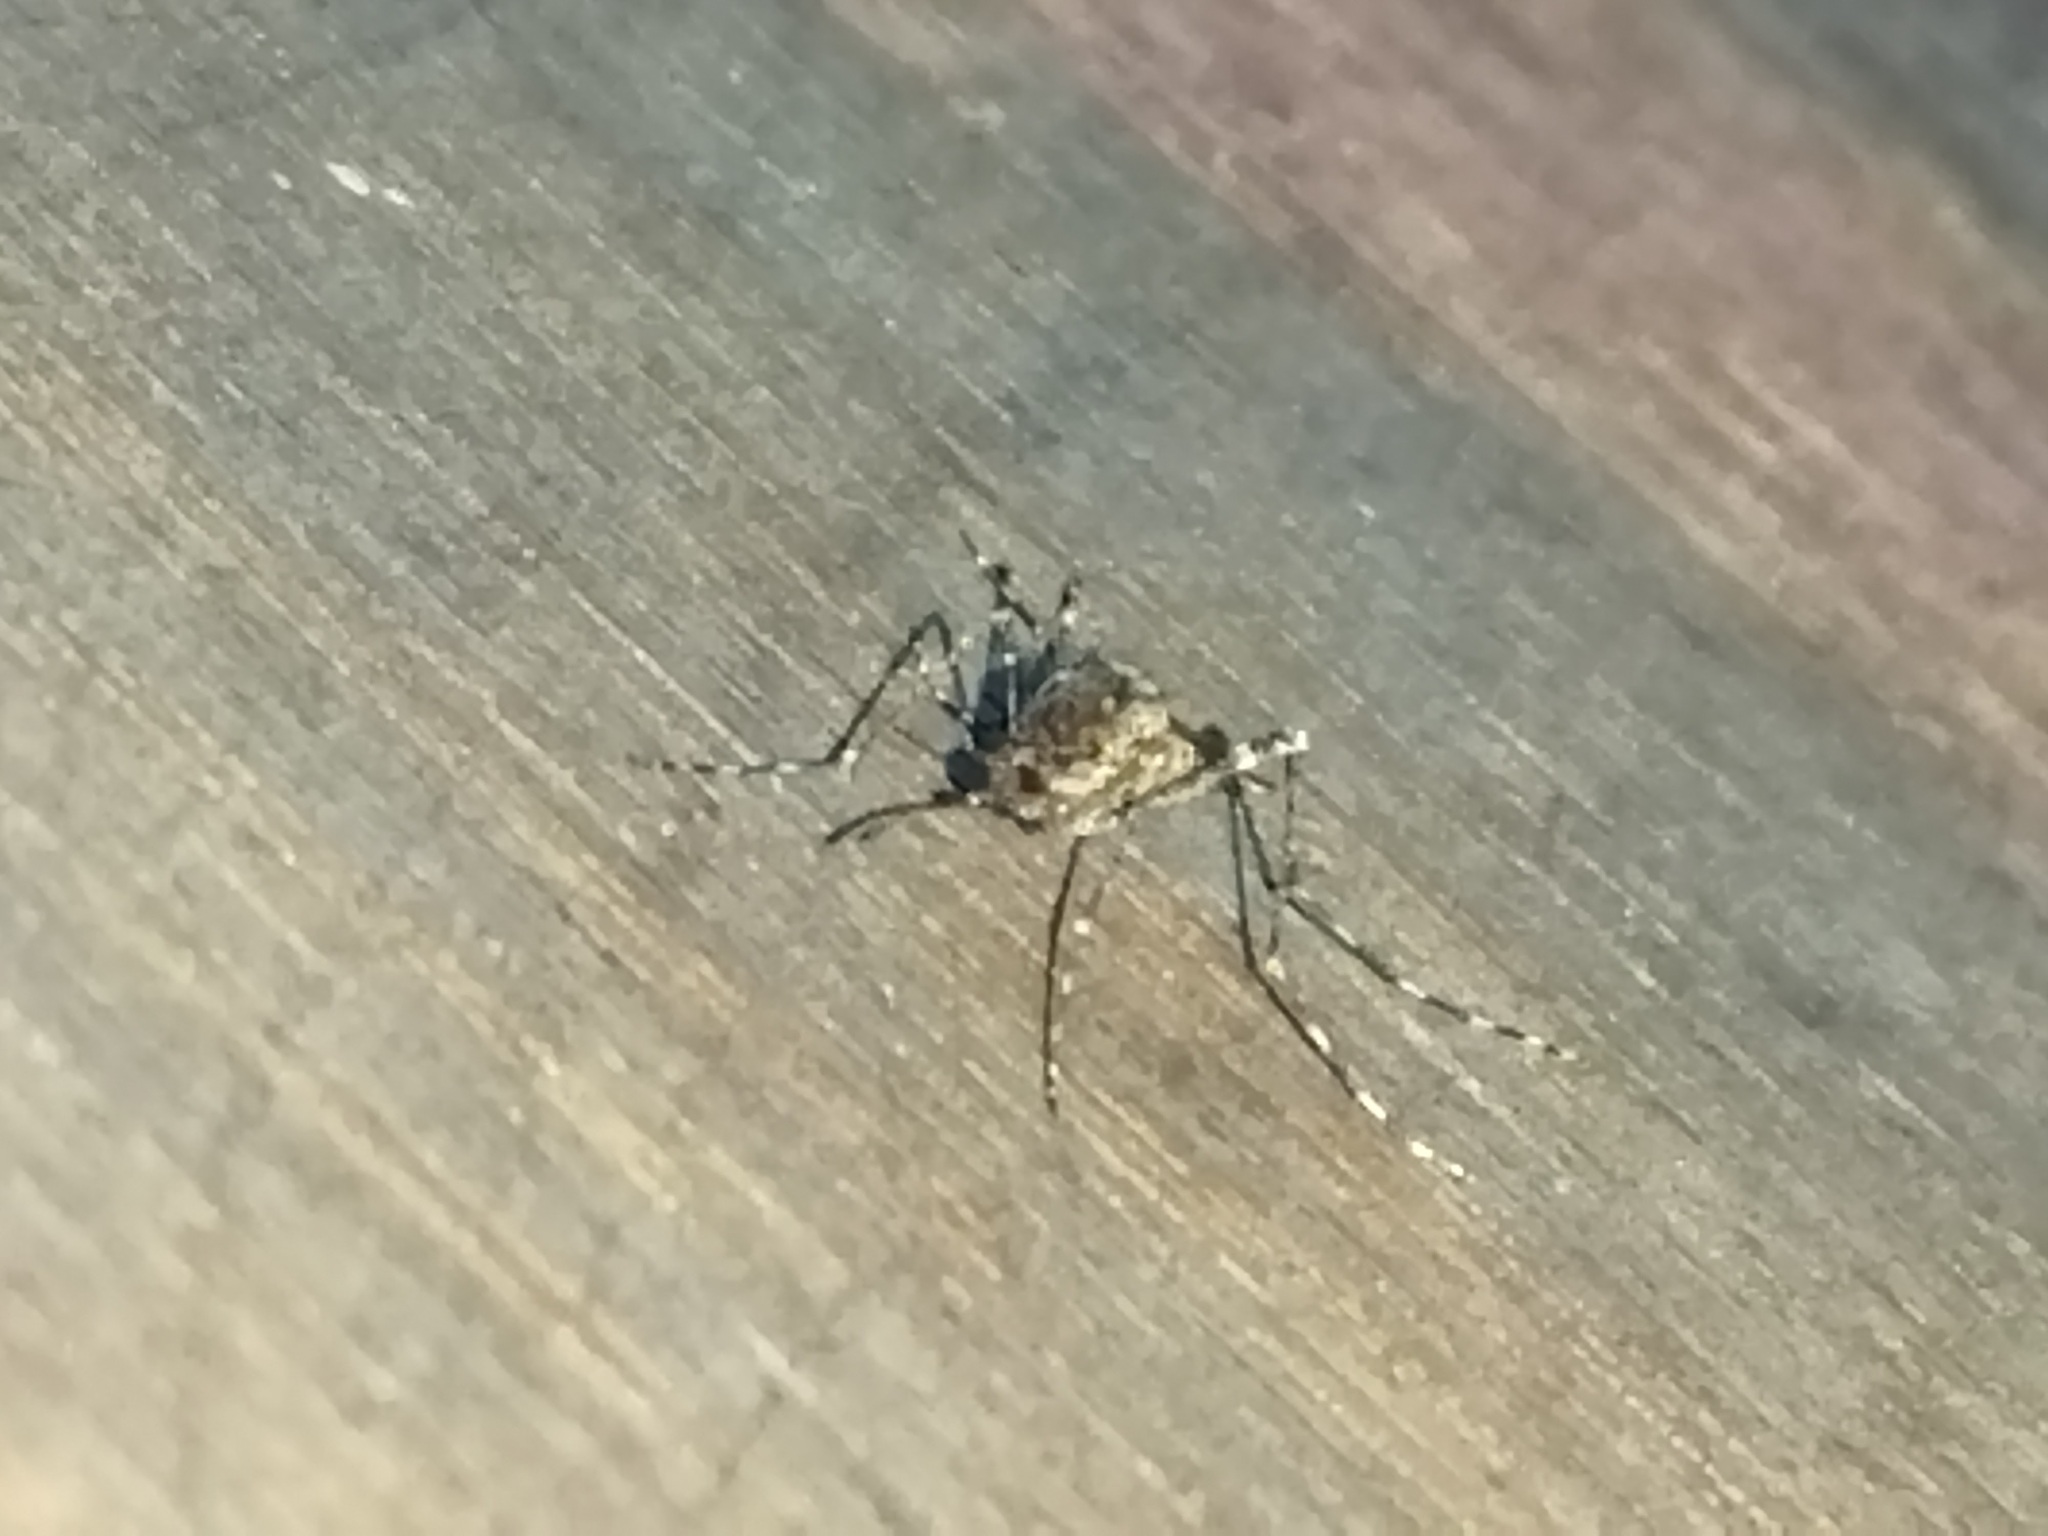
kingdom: Animalia
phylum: Arthropoda
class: Insecta
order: Diptera
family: Culicidae
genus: Culiseta
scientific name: Culiseta annulata
